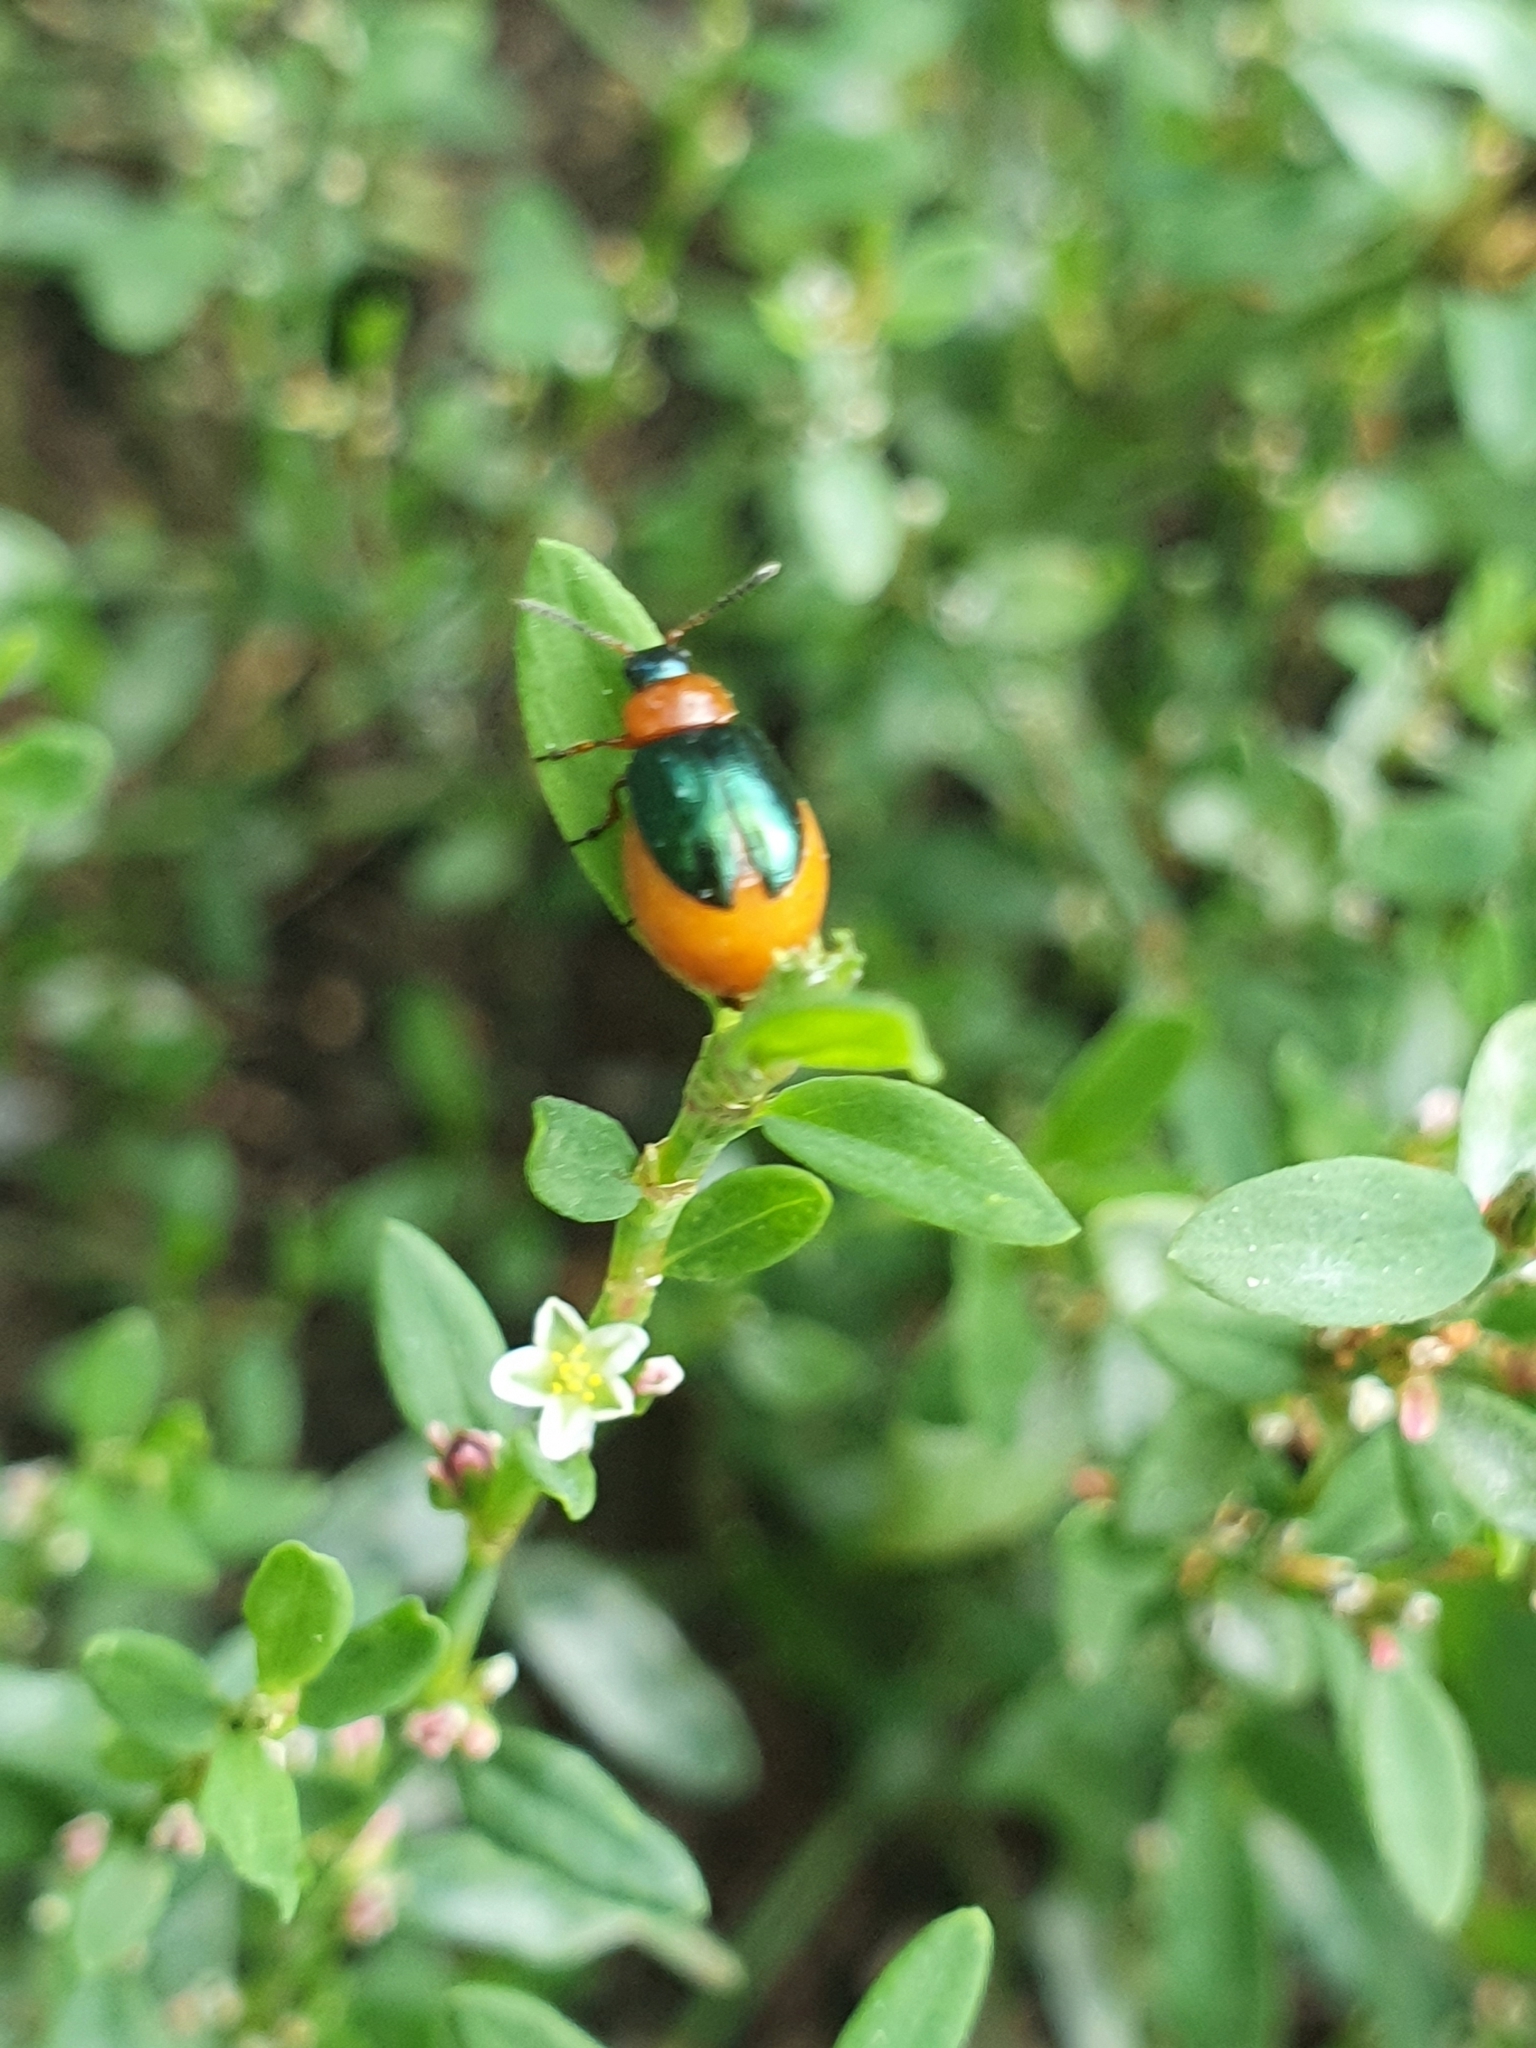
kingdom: Animalia
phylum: Arthropoda
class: Insecta
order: Coleoptera
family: Chrysomelidae
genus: Gastrophysa
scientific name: Gastrophysa polygoni
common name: Knotweed leaf beetle
